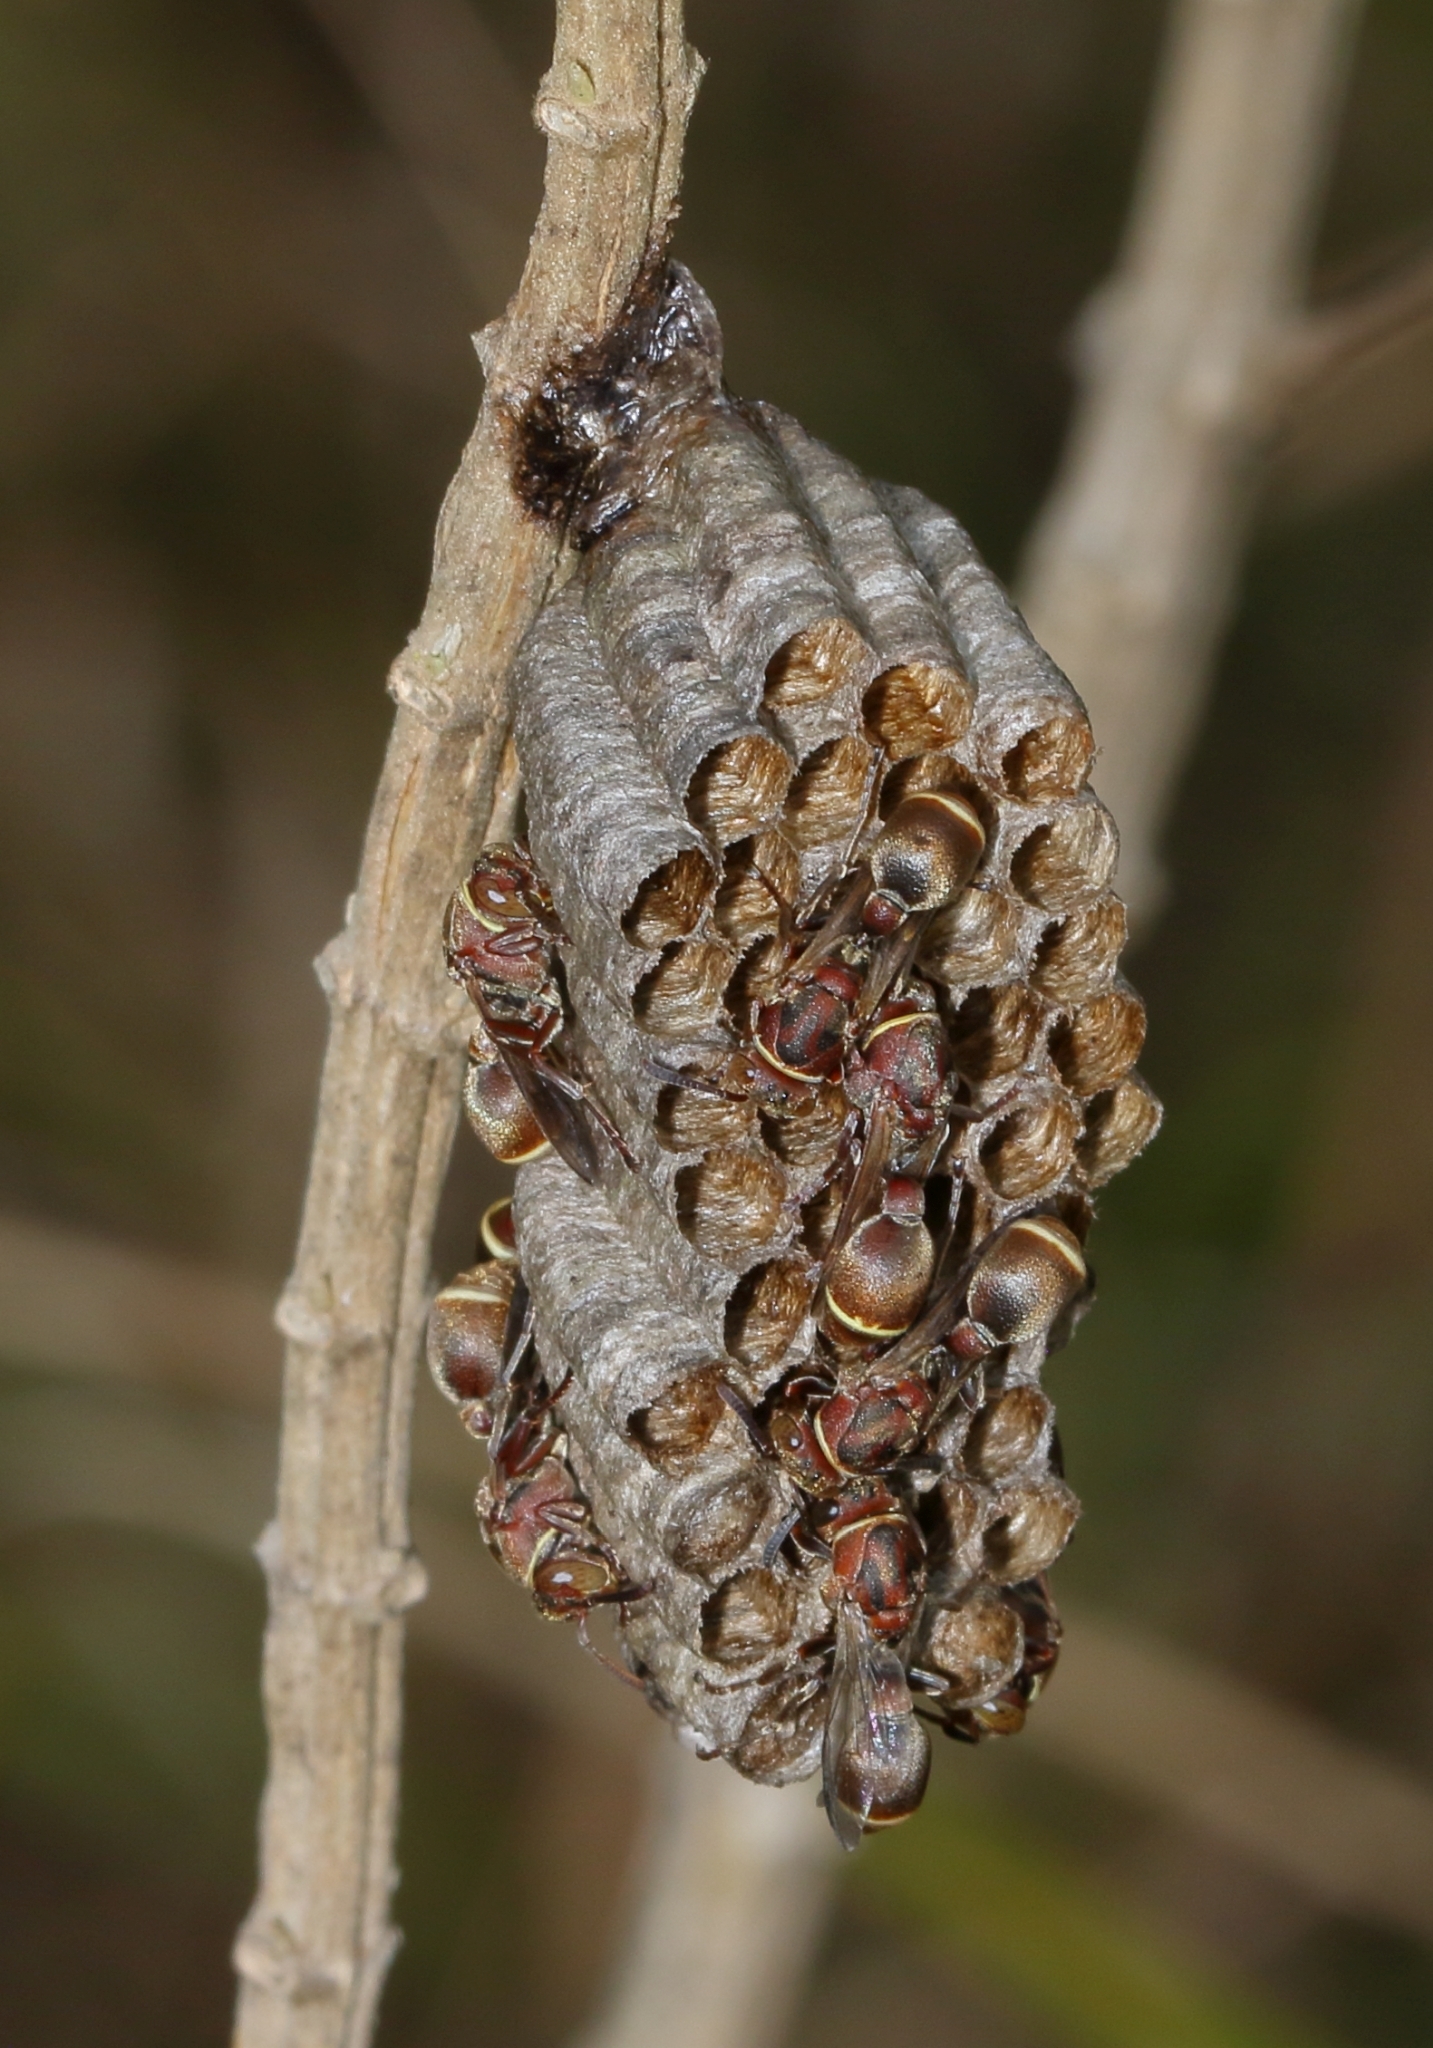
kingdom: Animalia
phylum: Arthropoda
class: Insecta
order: Hymenoptera
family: Vespidae
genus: Ropalidia
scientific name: Ropalidia capensis
